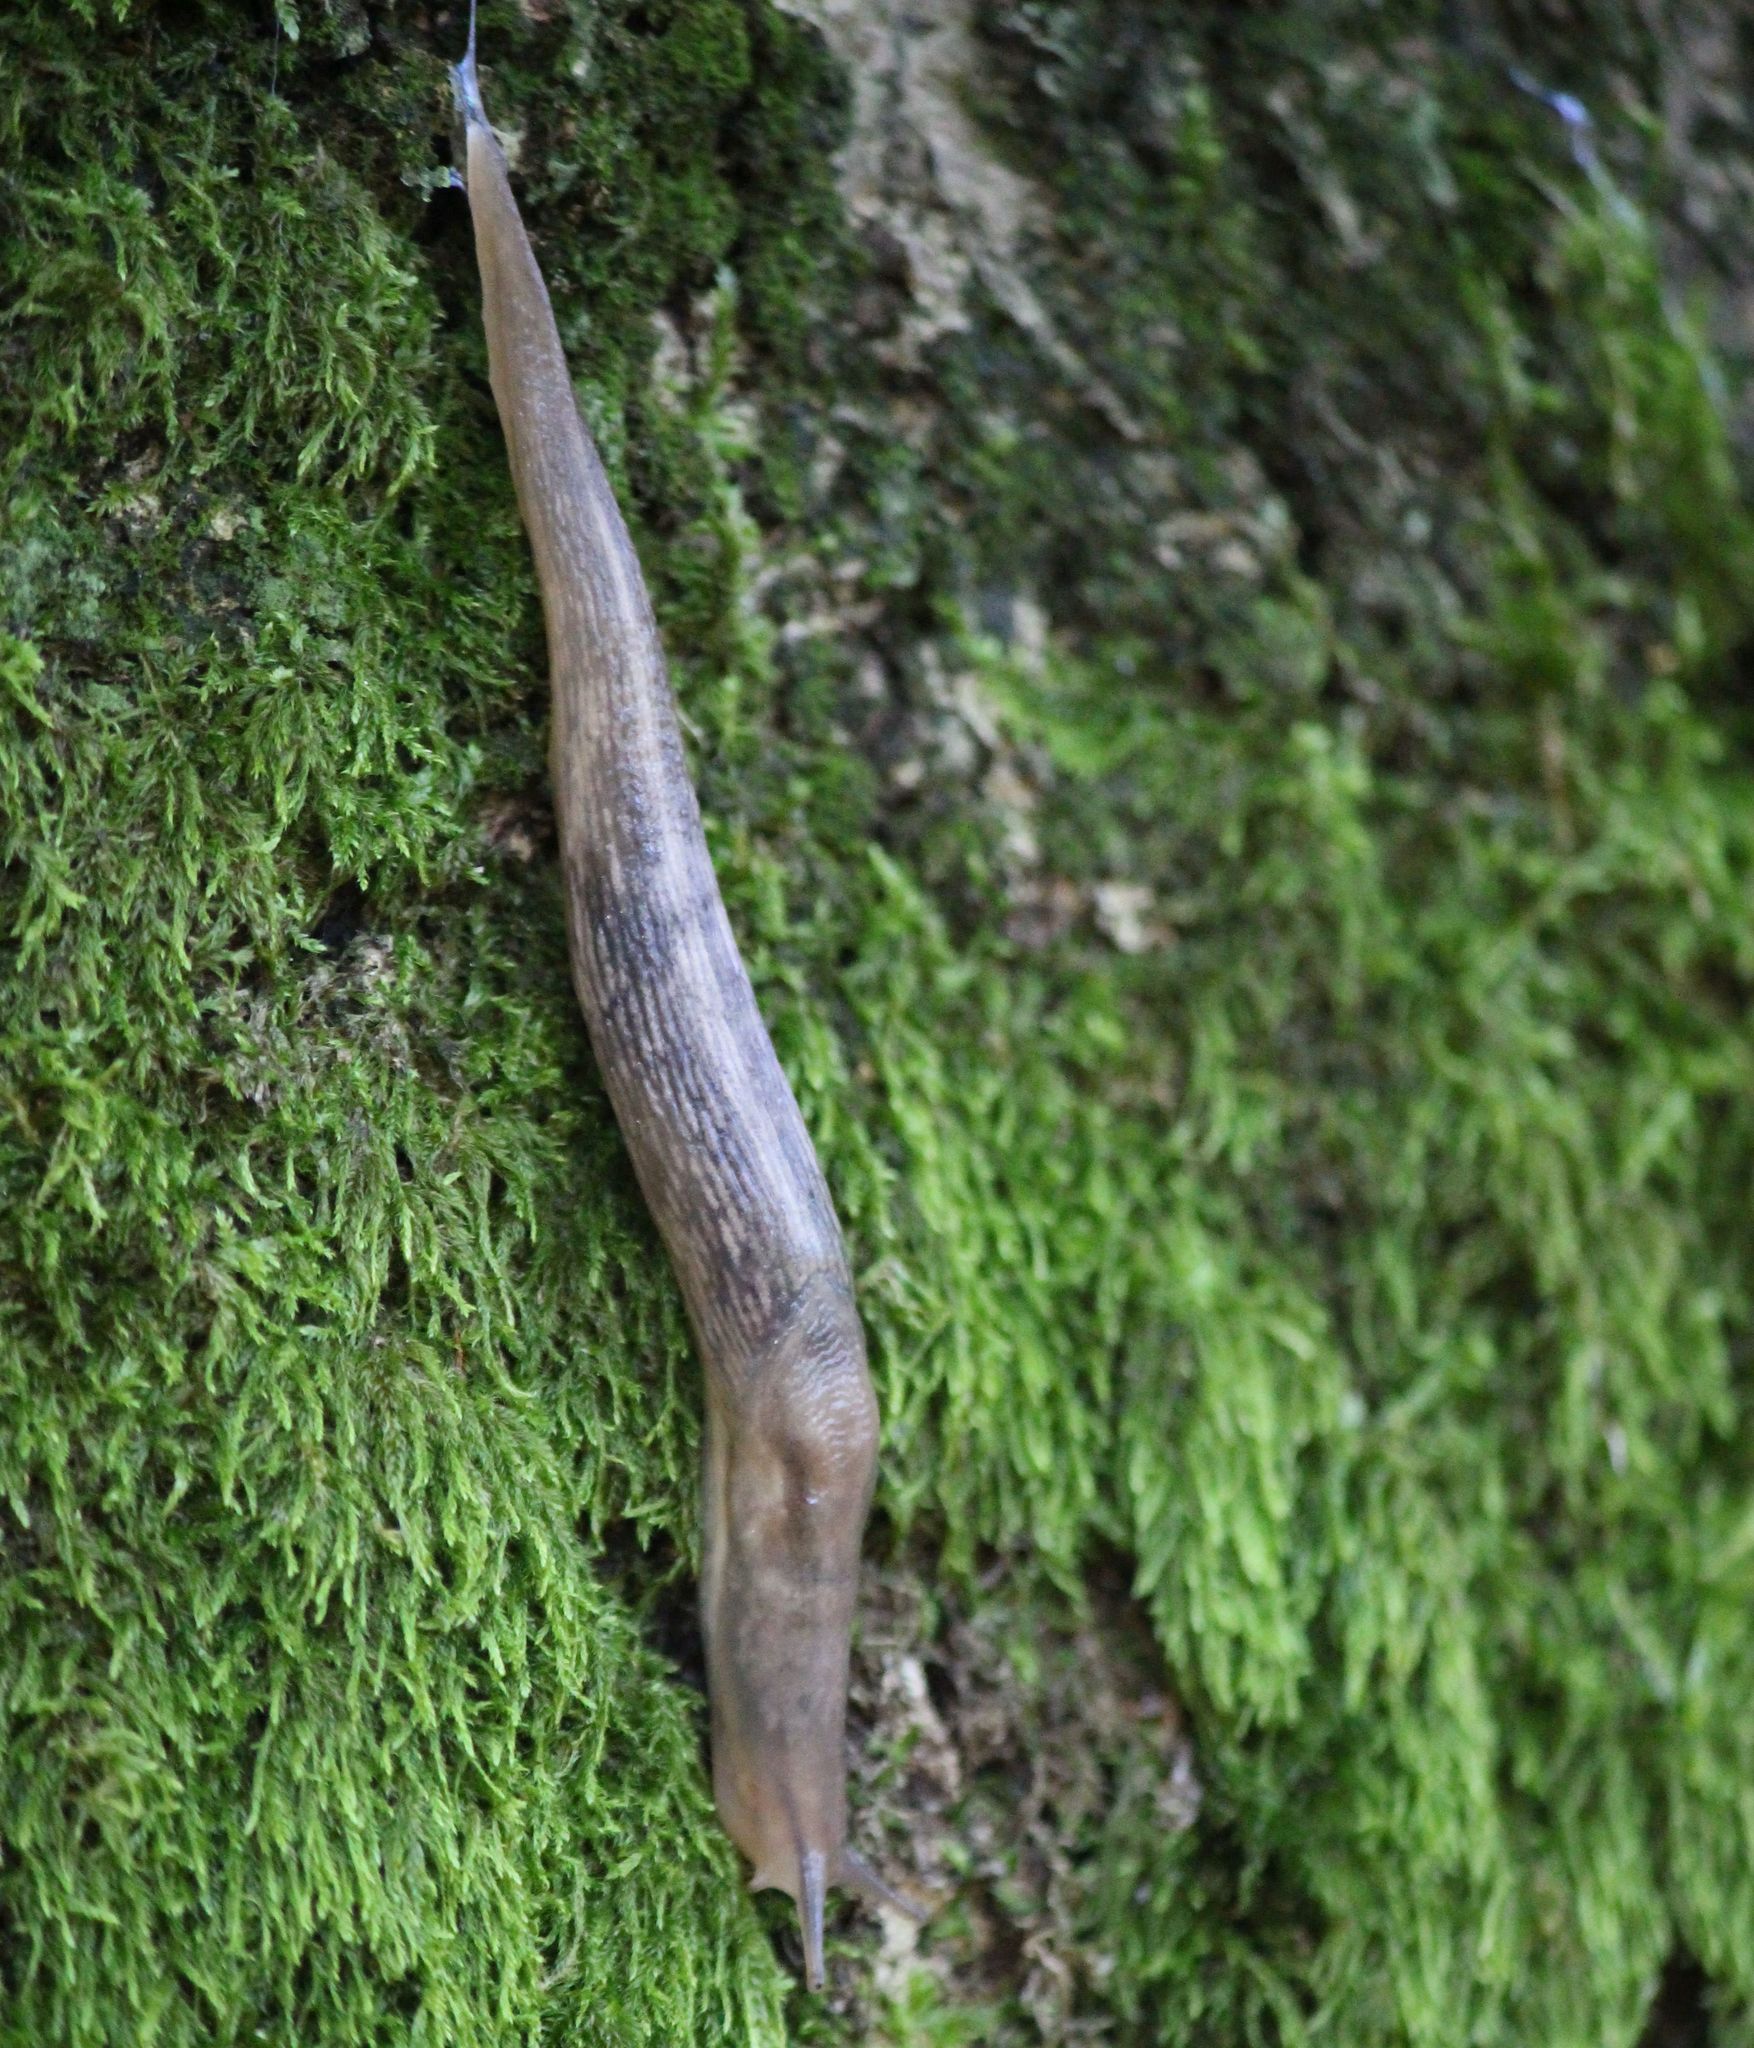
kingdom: Animalia
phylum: Mollusca
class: Gastropoda
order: Stylommatophora
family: Limacidae
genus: Lehmannia
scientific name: Lehmannia marginata
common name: Tree slug
